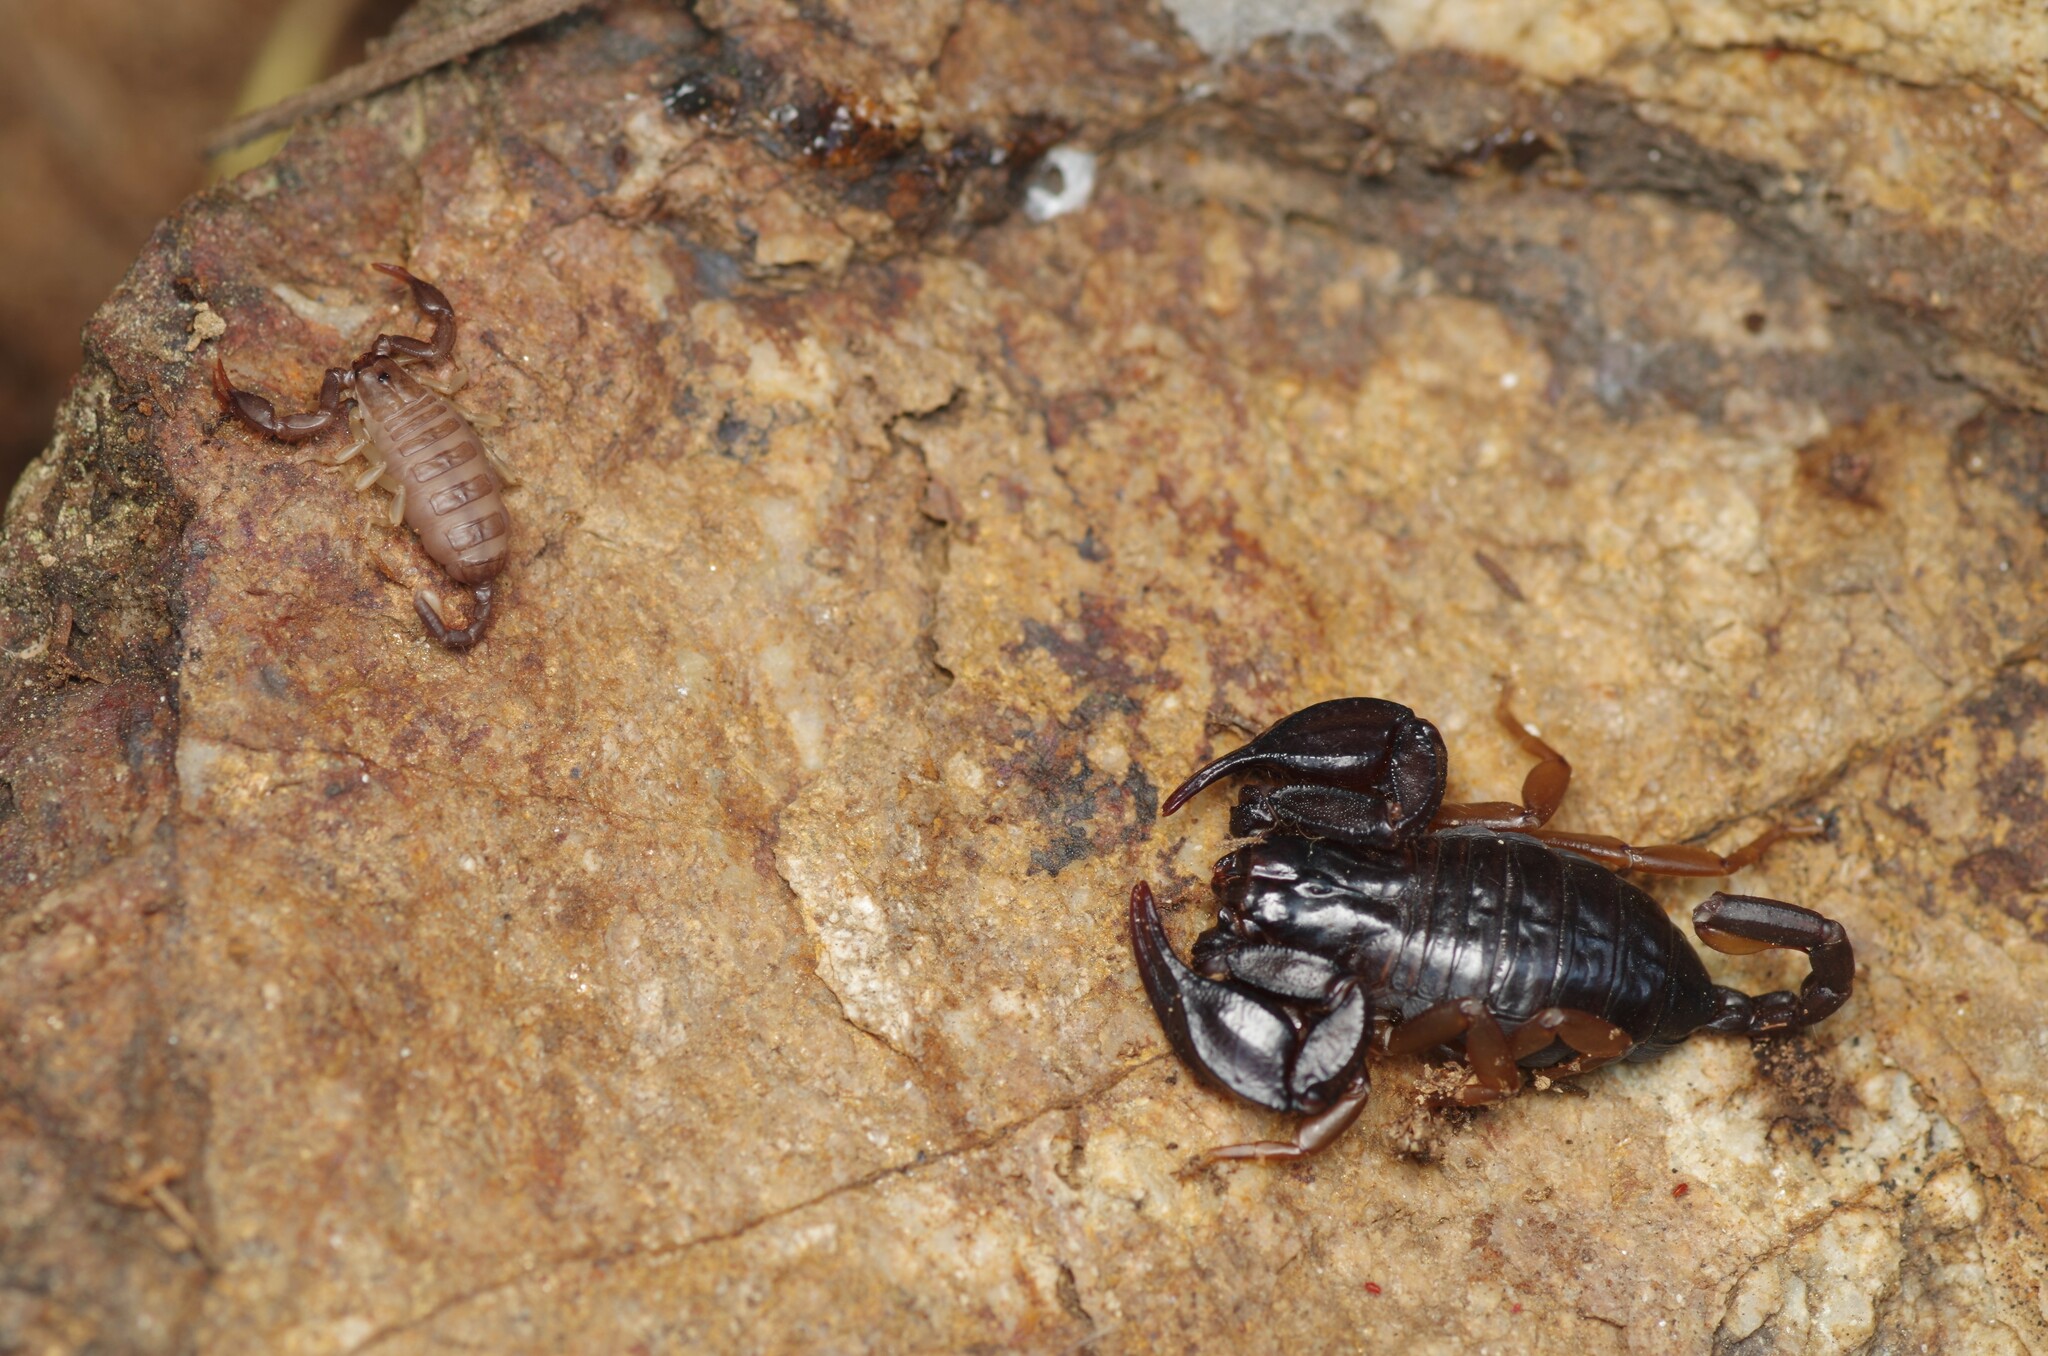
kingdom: Animalia
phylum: Arthropoda
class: Arachnida
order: Scorpiones
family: Euscorpiidae
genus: Euscorpius
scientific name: Euscorpius flavicaudis
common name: European yellow-tailed scorpion
